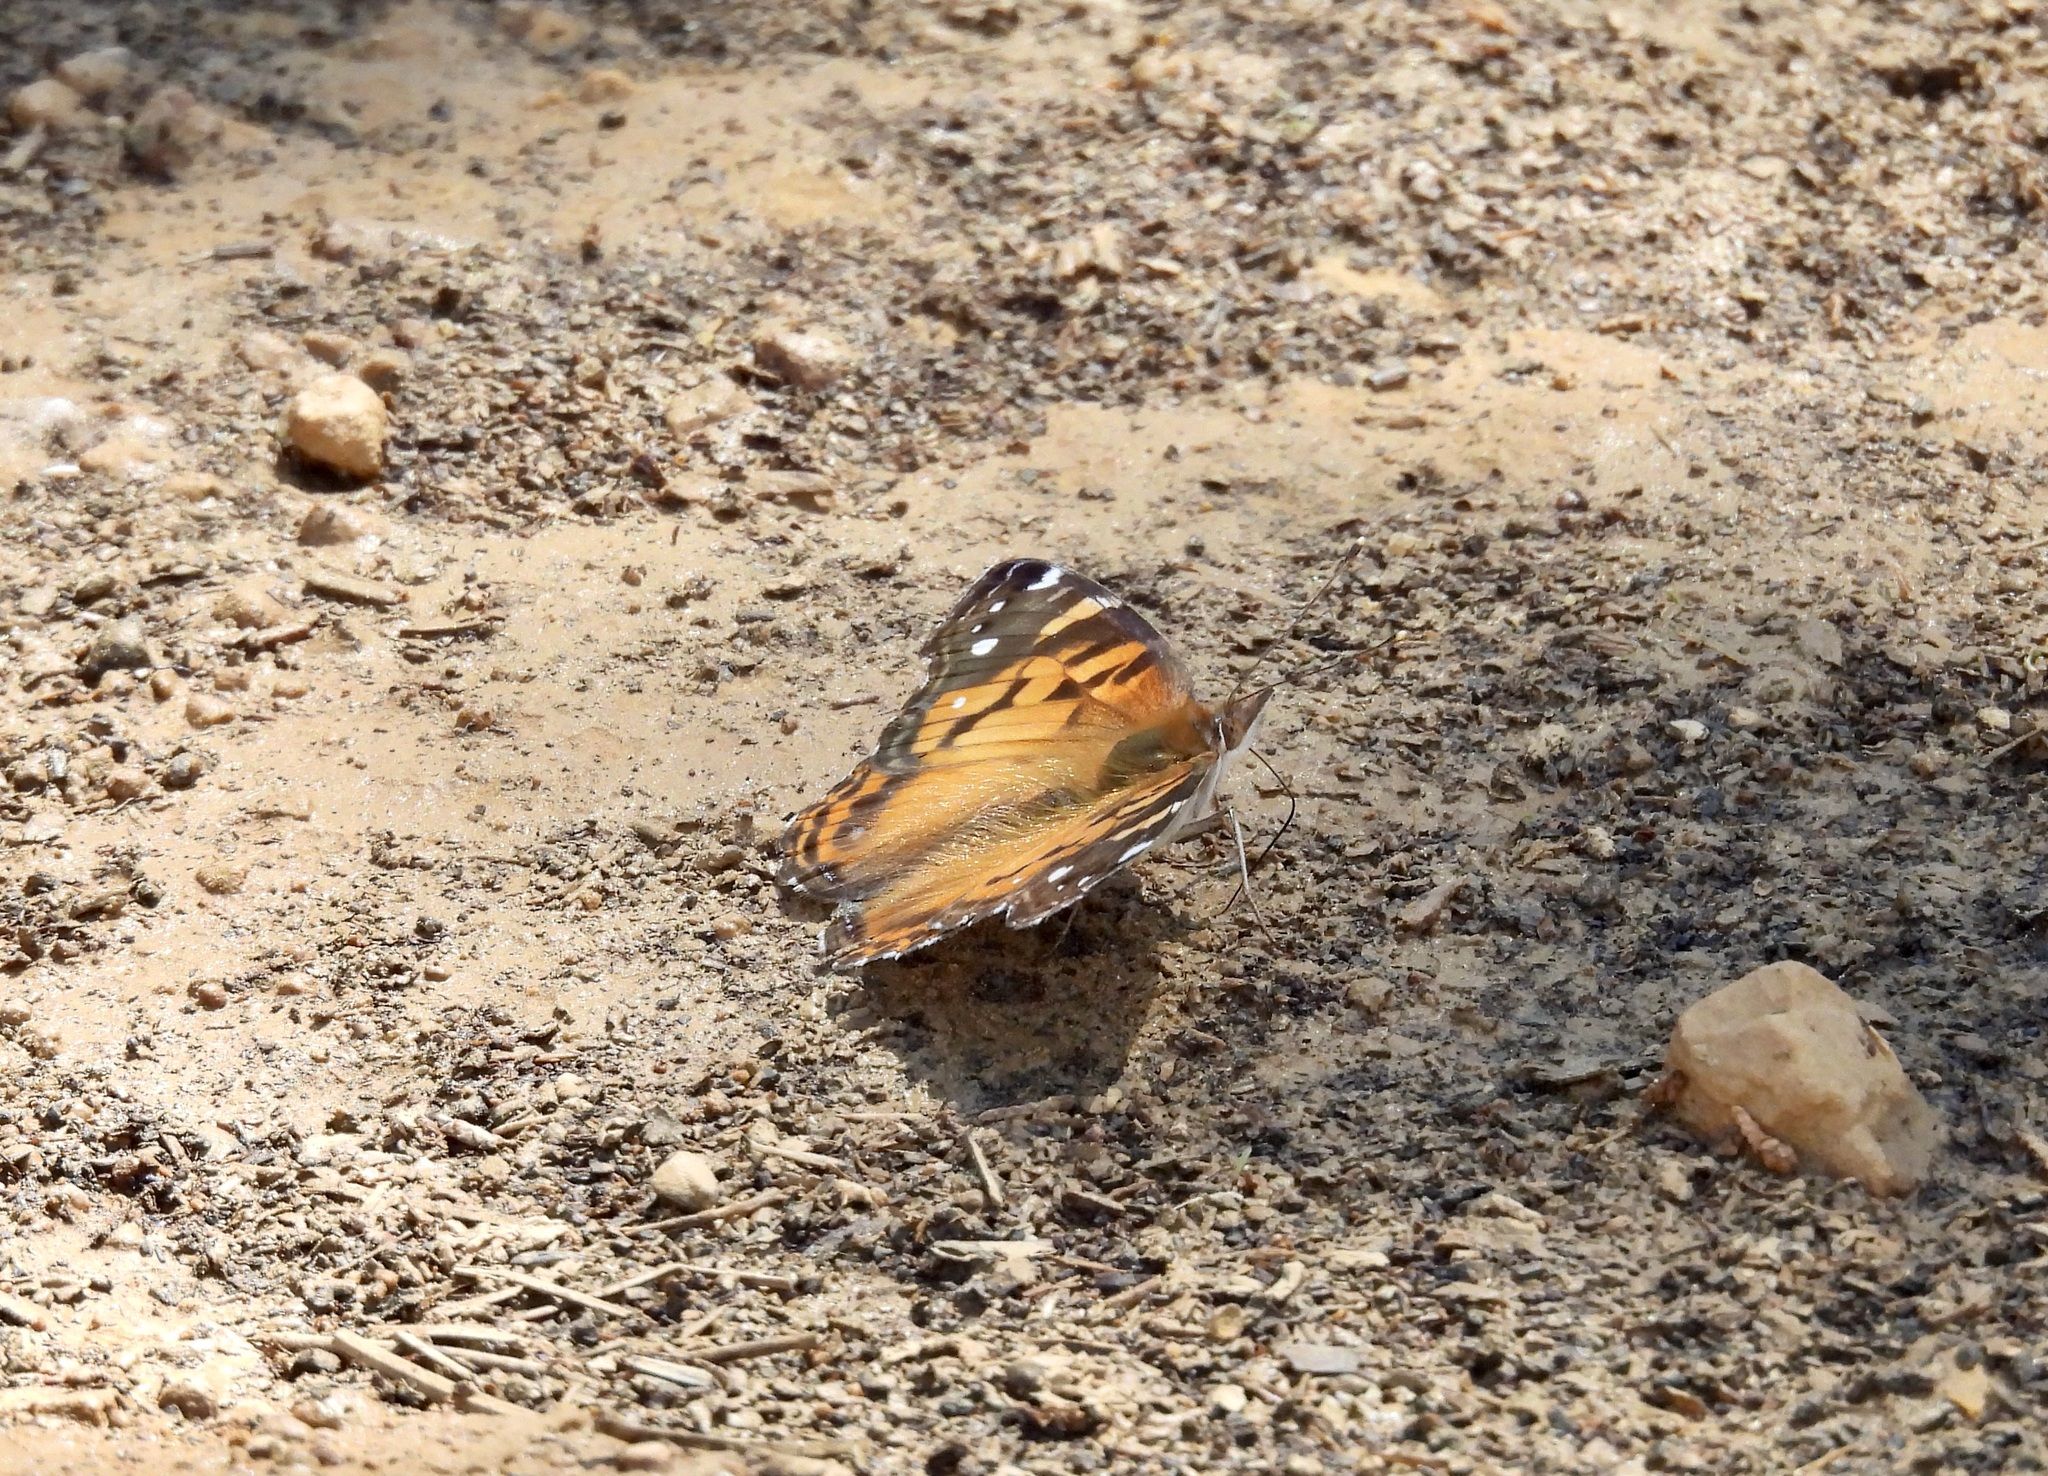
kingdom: Animalia
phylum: Arthropoda
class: Insecta
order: Lepidoptera
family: Nymphalidae
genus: Vanessa
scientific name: Vanessa virginiensis
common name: American lady
